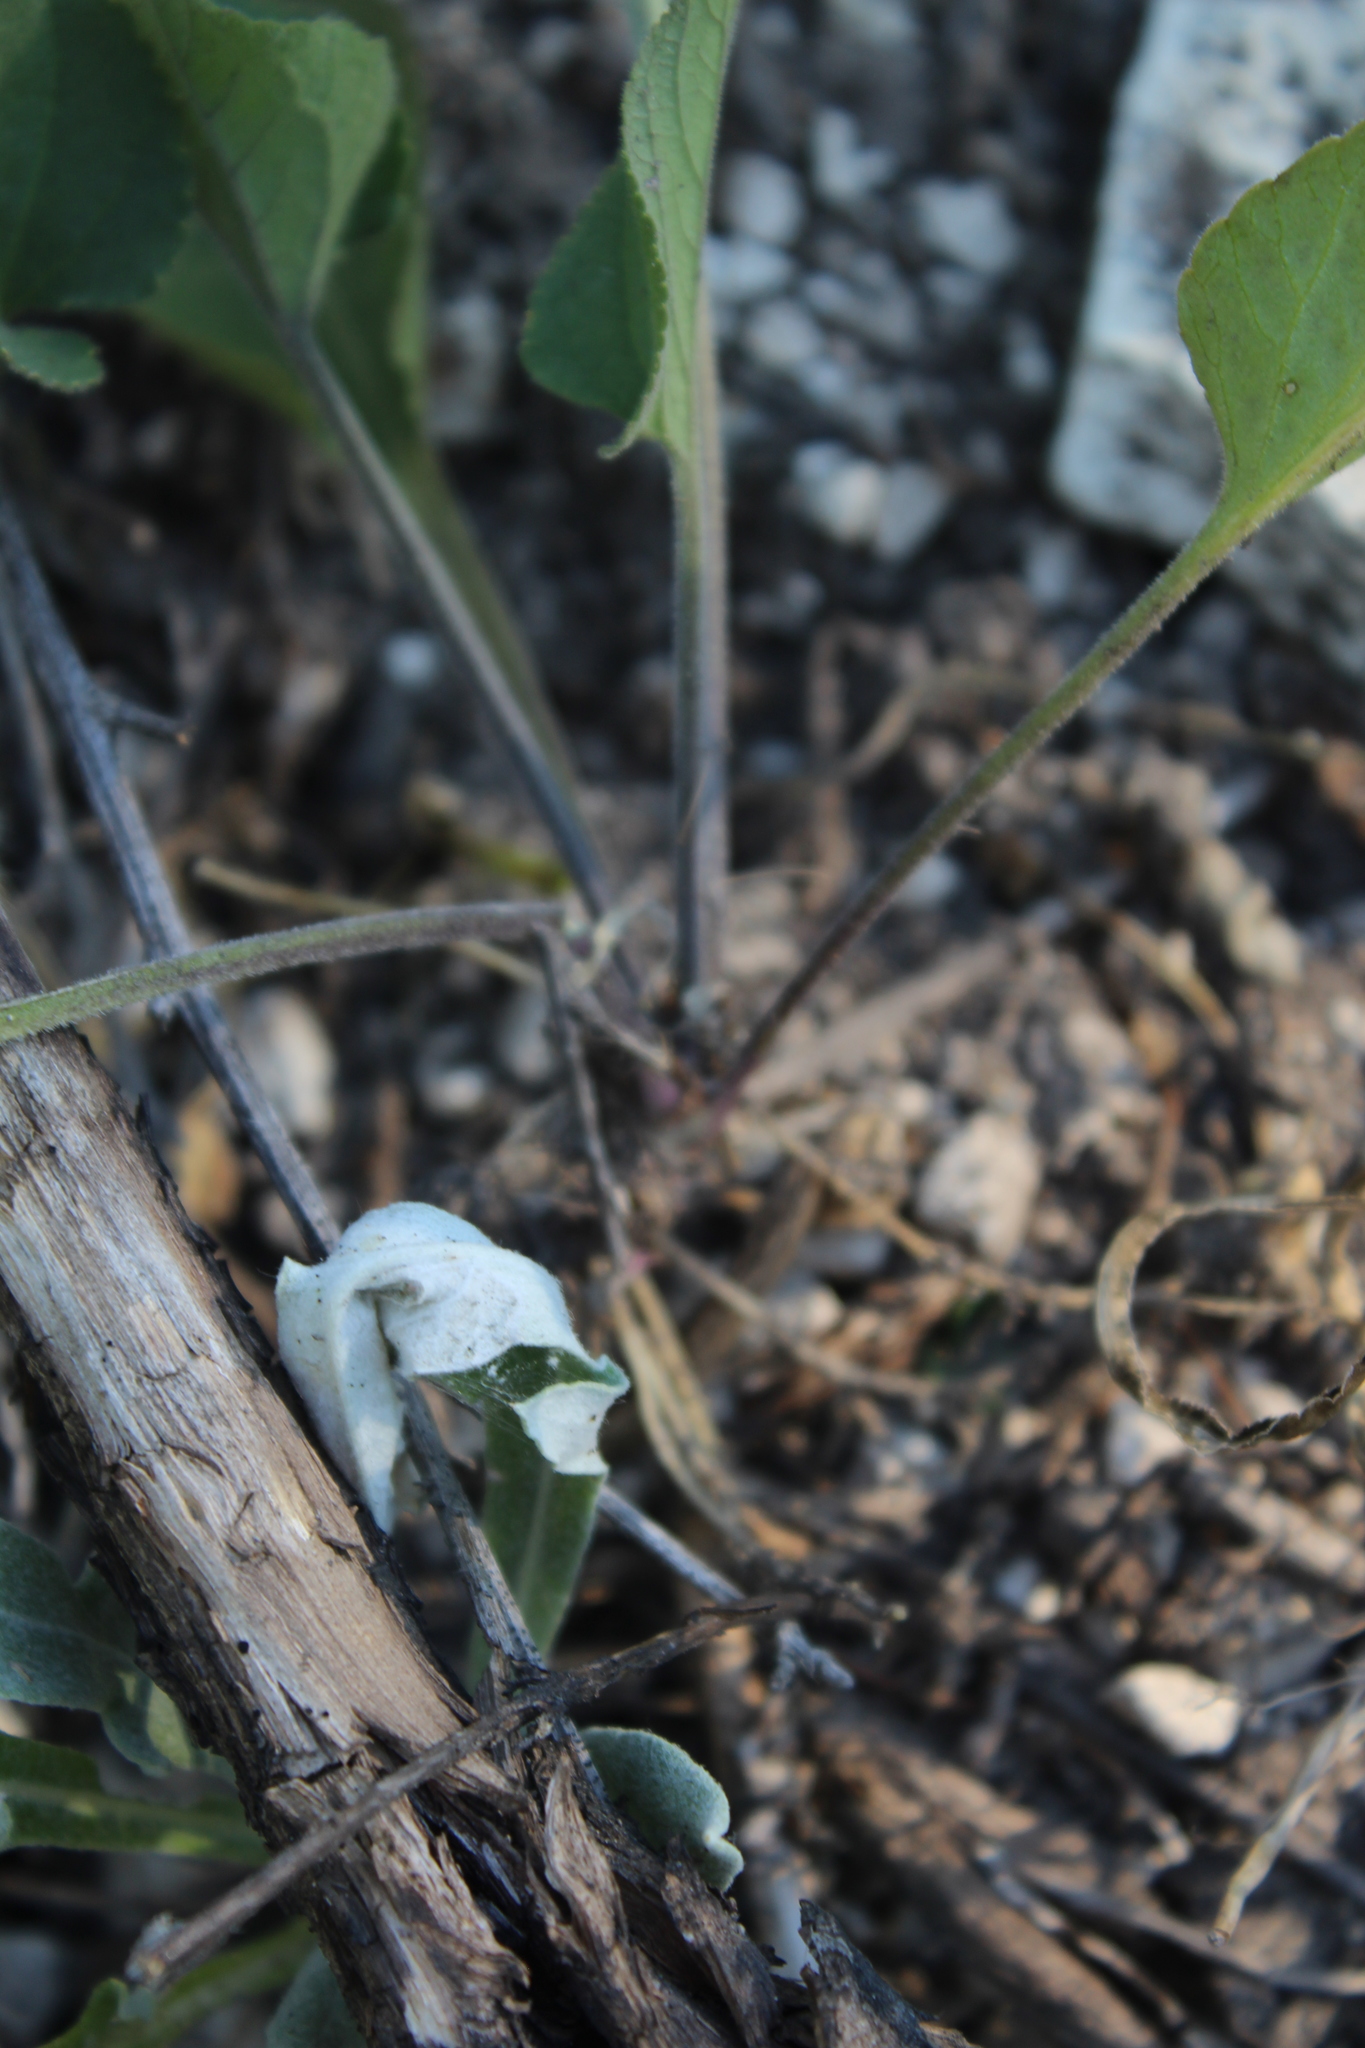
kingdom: Plantae
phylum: Tracheophyta
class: Magnoliopsida
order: Malpighiales
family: Violaceae
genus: Viola
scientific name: Viola ambigua
